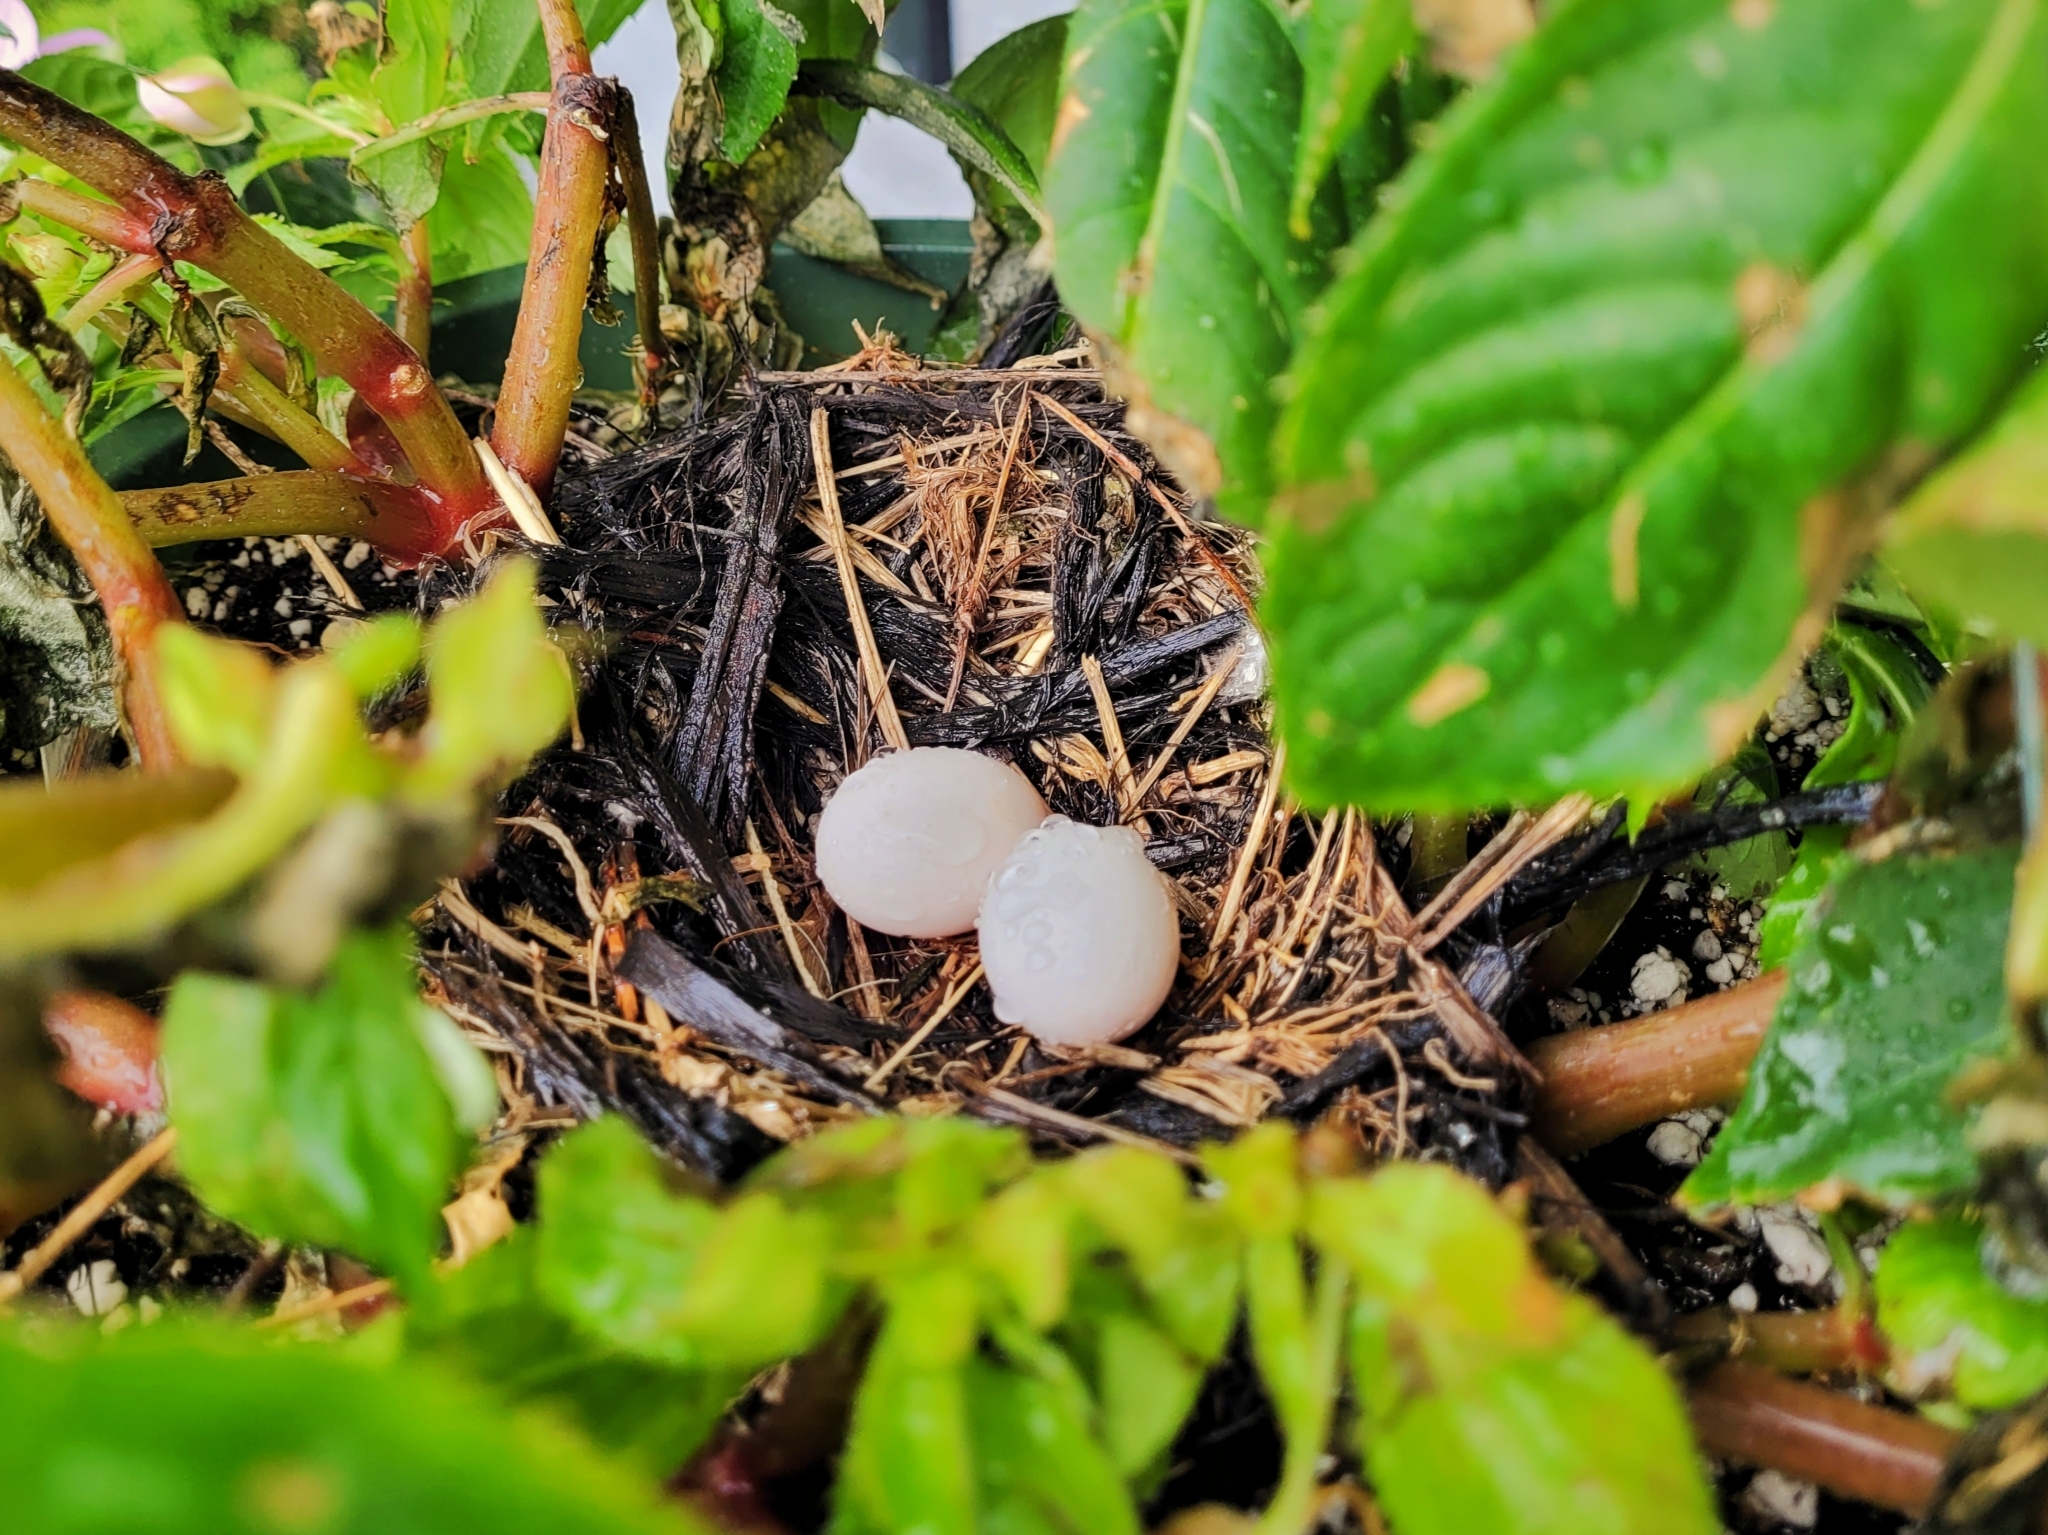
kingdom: Animalia
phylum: Chordata
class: Aves
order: Columbiformes
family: Columbidae
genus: Zenaida
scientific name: Zenaida macroura
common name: Mourning dove
